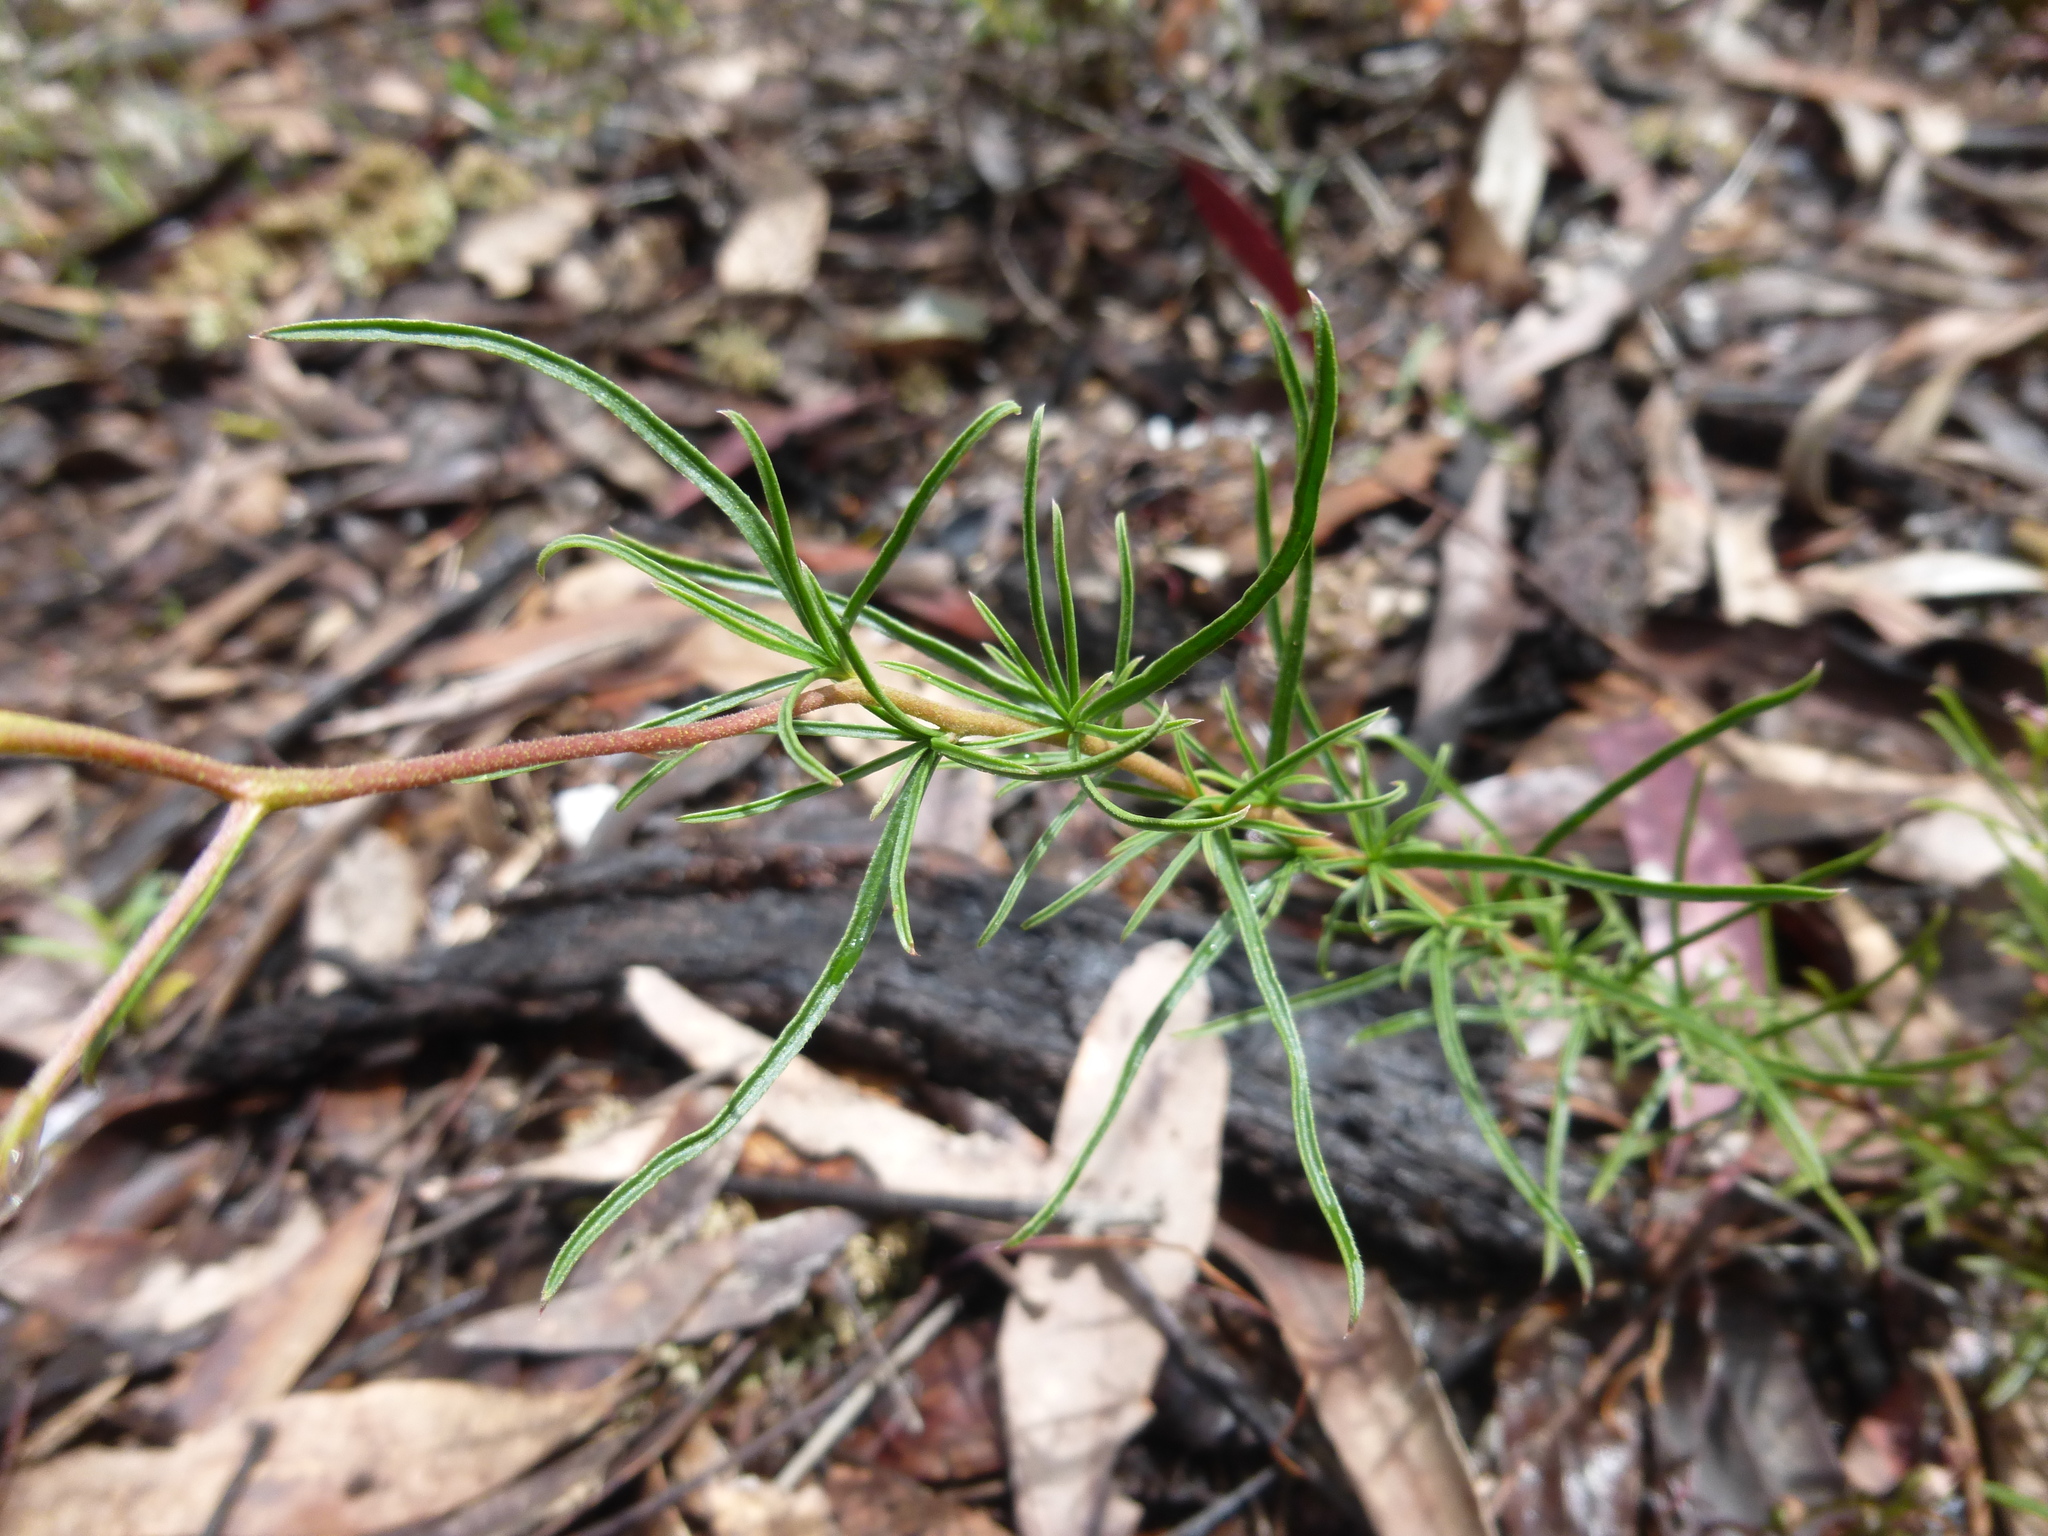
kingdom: Plantae
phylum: Tracheophyta
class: Magnoliopsida
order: Apiales
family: Pittosporaceae
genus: Cheiranthera
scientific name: Cheiranthera linearis
